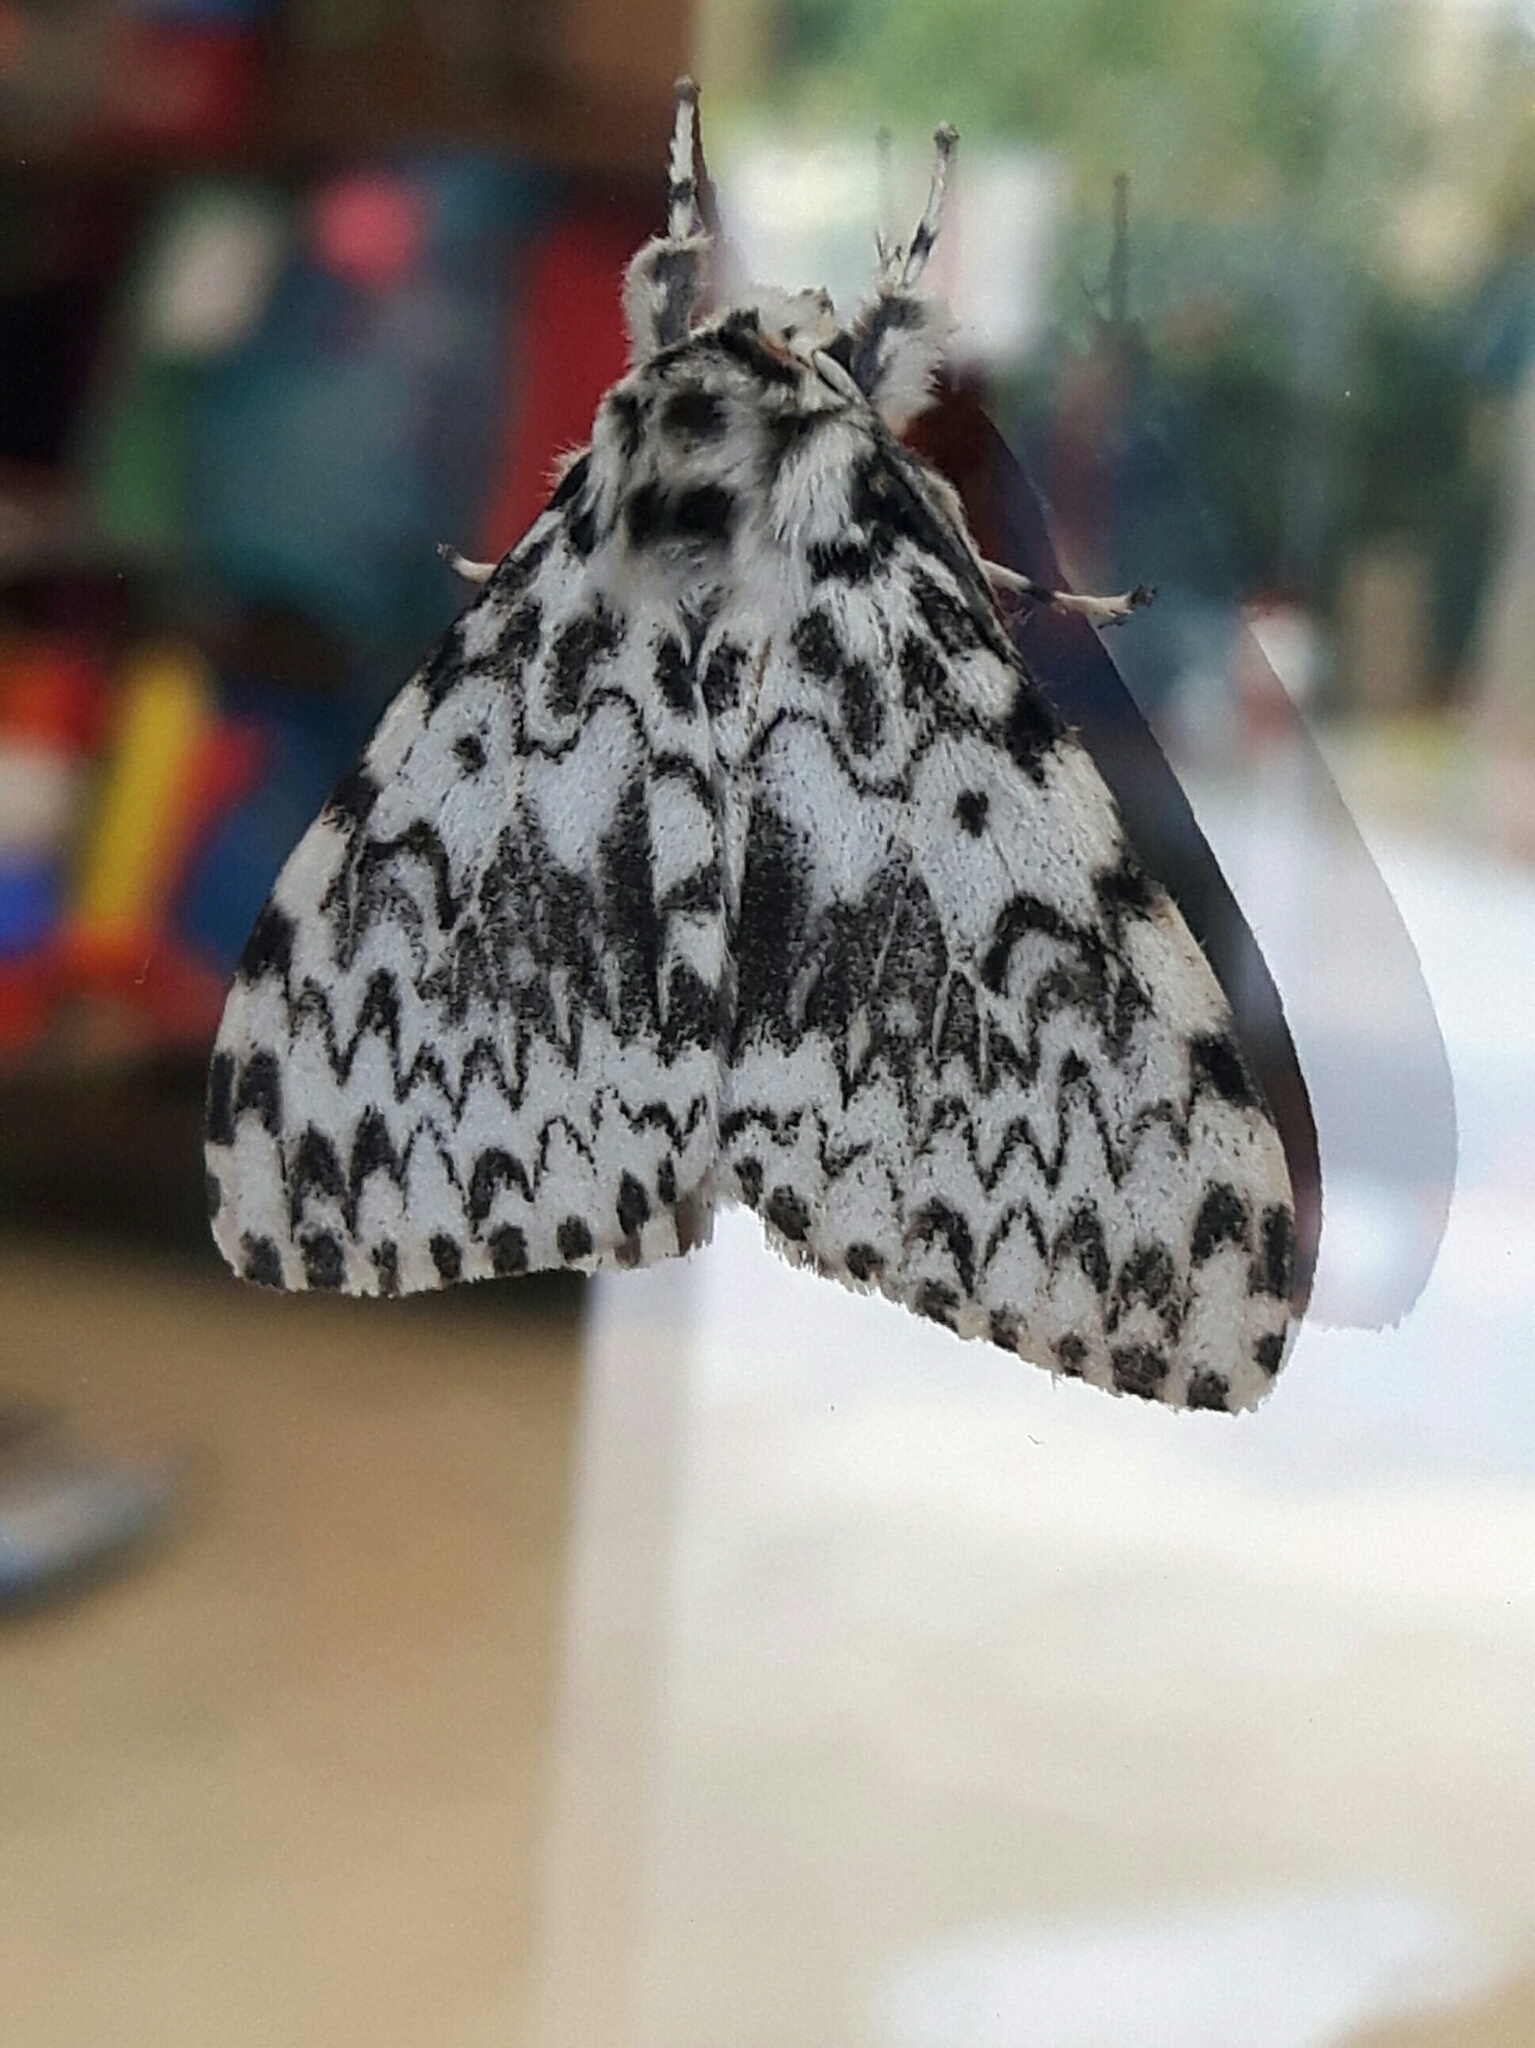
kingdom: Animalia
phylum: Arthropoda
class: Insecta
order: Lepidoptera
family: Erebidae
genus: Lymantria
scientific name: Lymantria monacha
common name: Black arches
